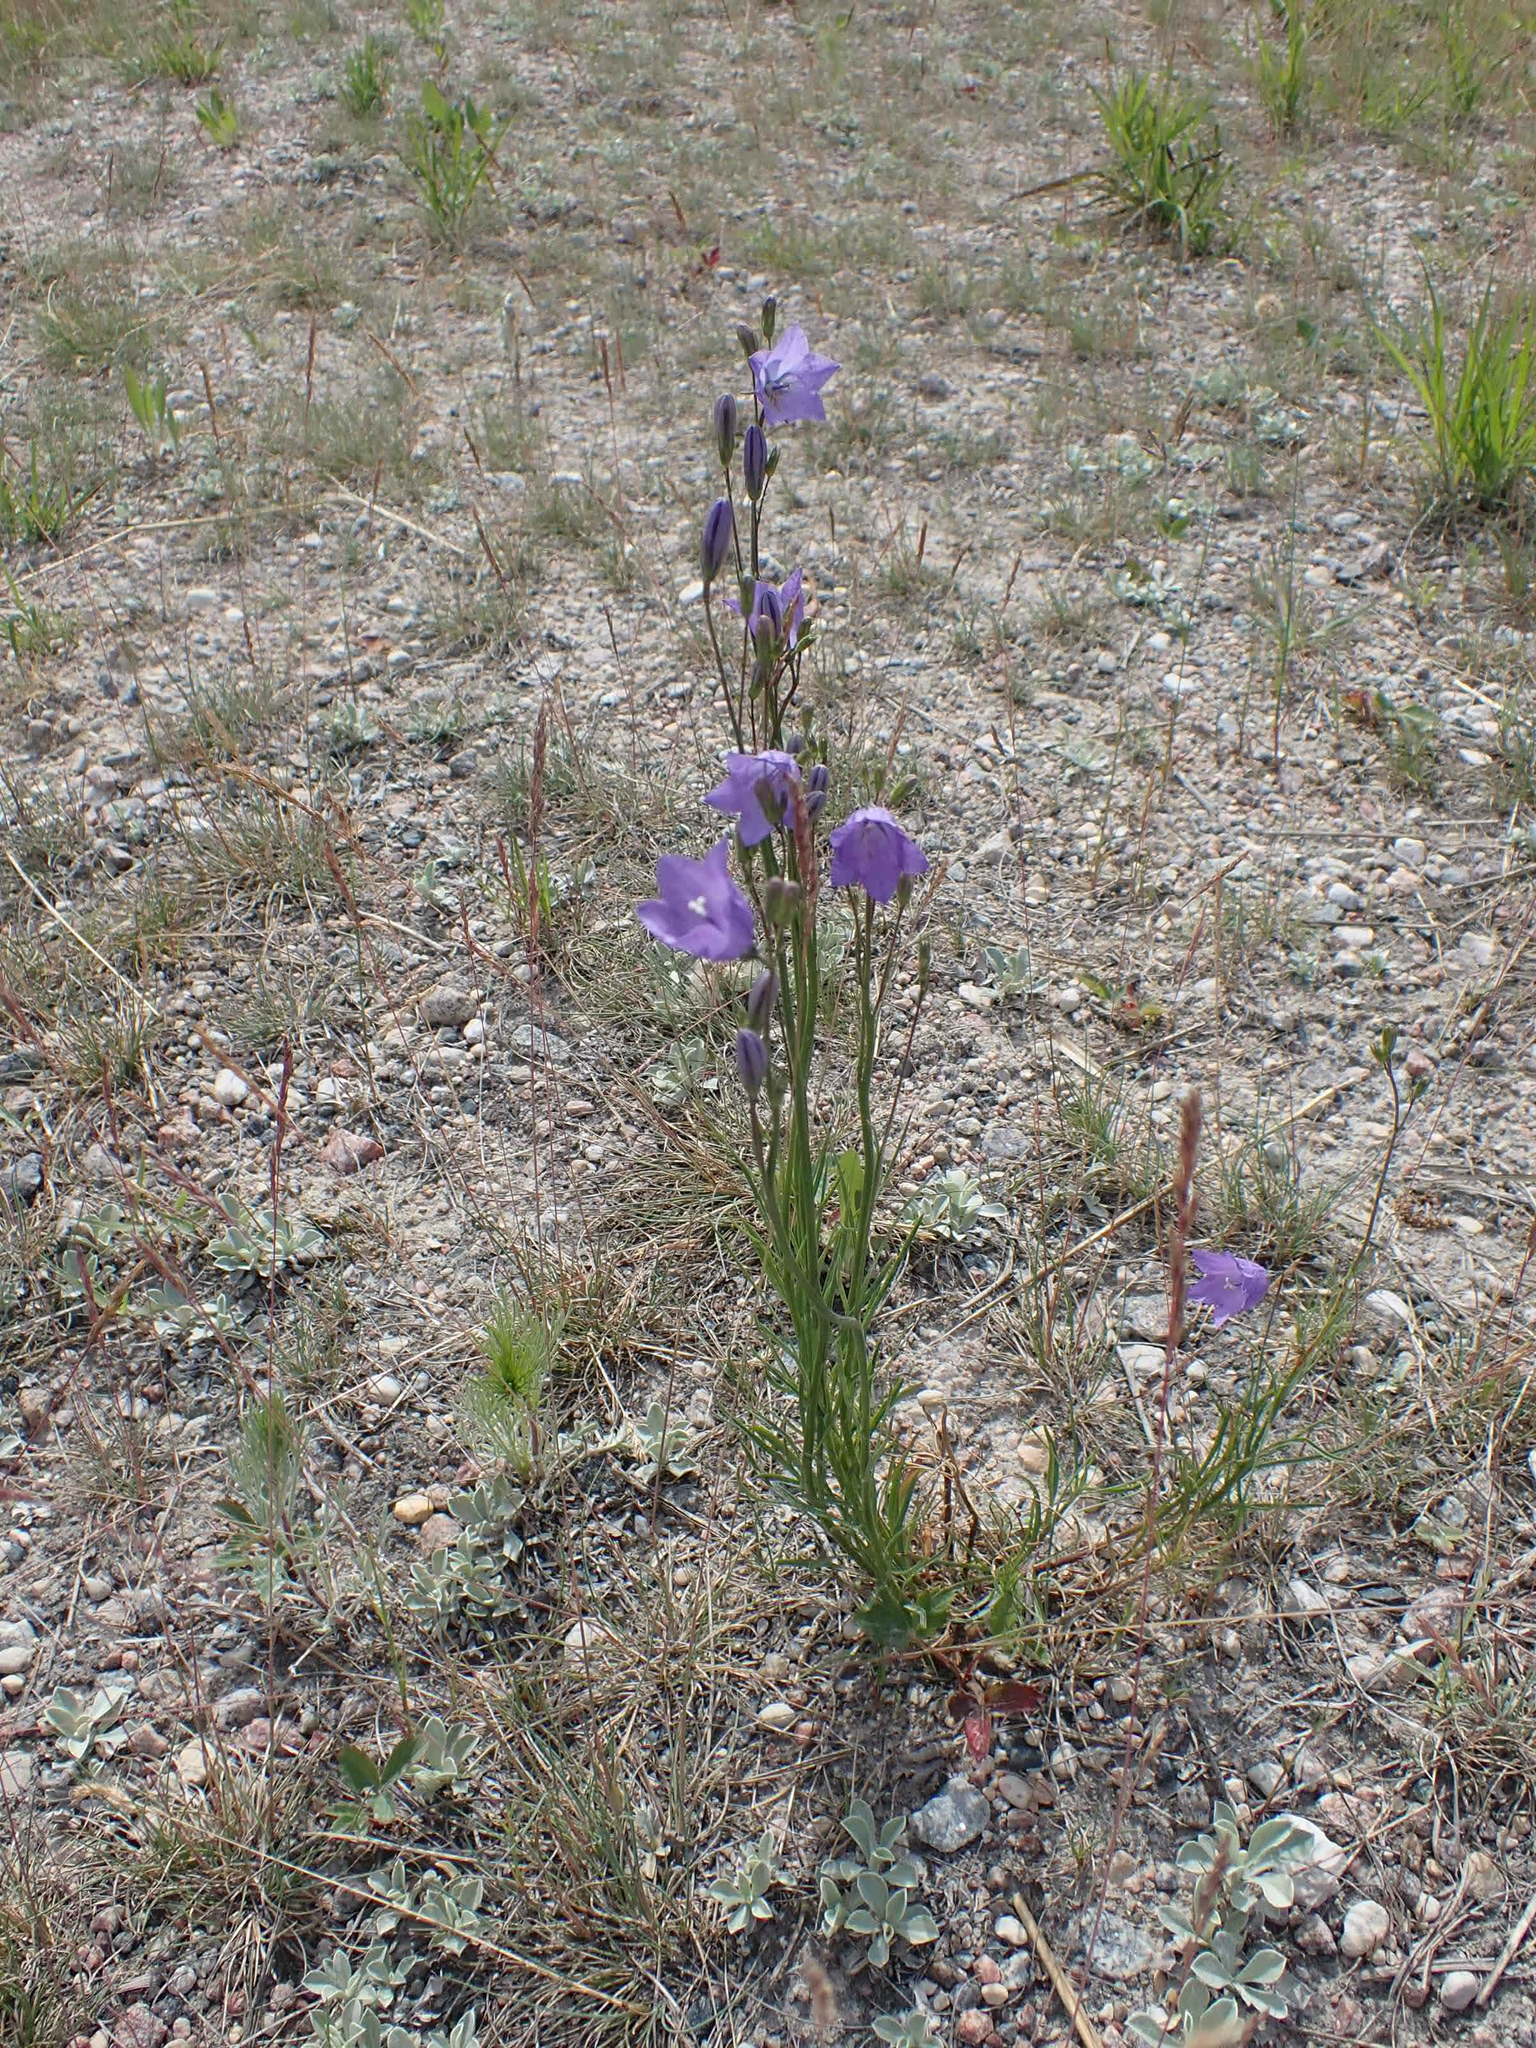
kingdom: Plantae
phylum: Tracheophyta
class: Magnoliopsida
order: Asterales
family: Campanulaceae
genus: Campanula
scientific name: Campanula petiolata
